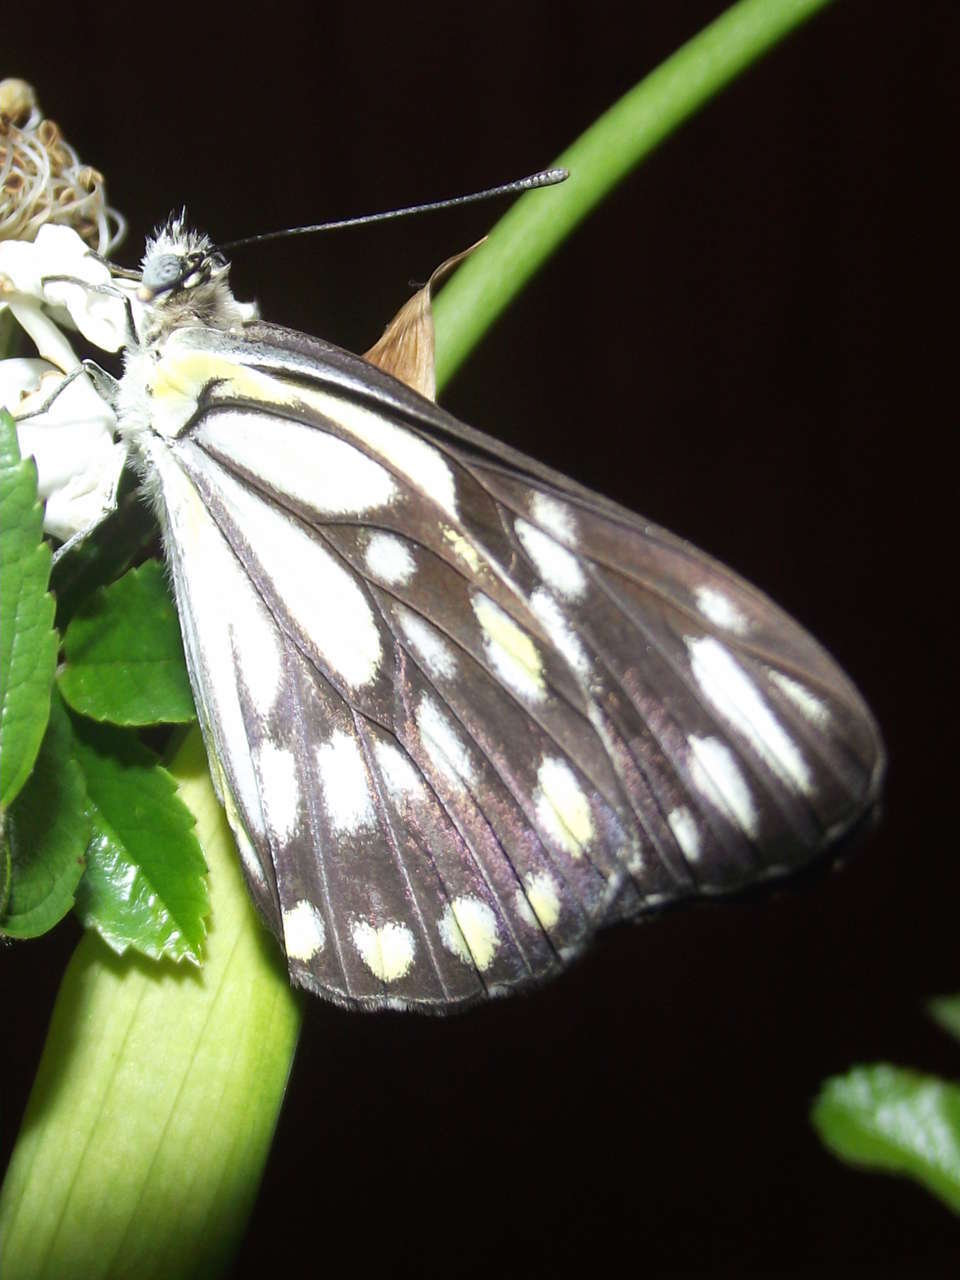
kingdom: Animalia
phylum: Arthropoda
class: Insecta
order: Lepidoptera
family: Pieridae
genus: Belenois
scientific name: Belenois java
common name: Caper white
